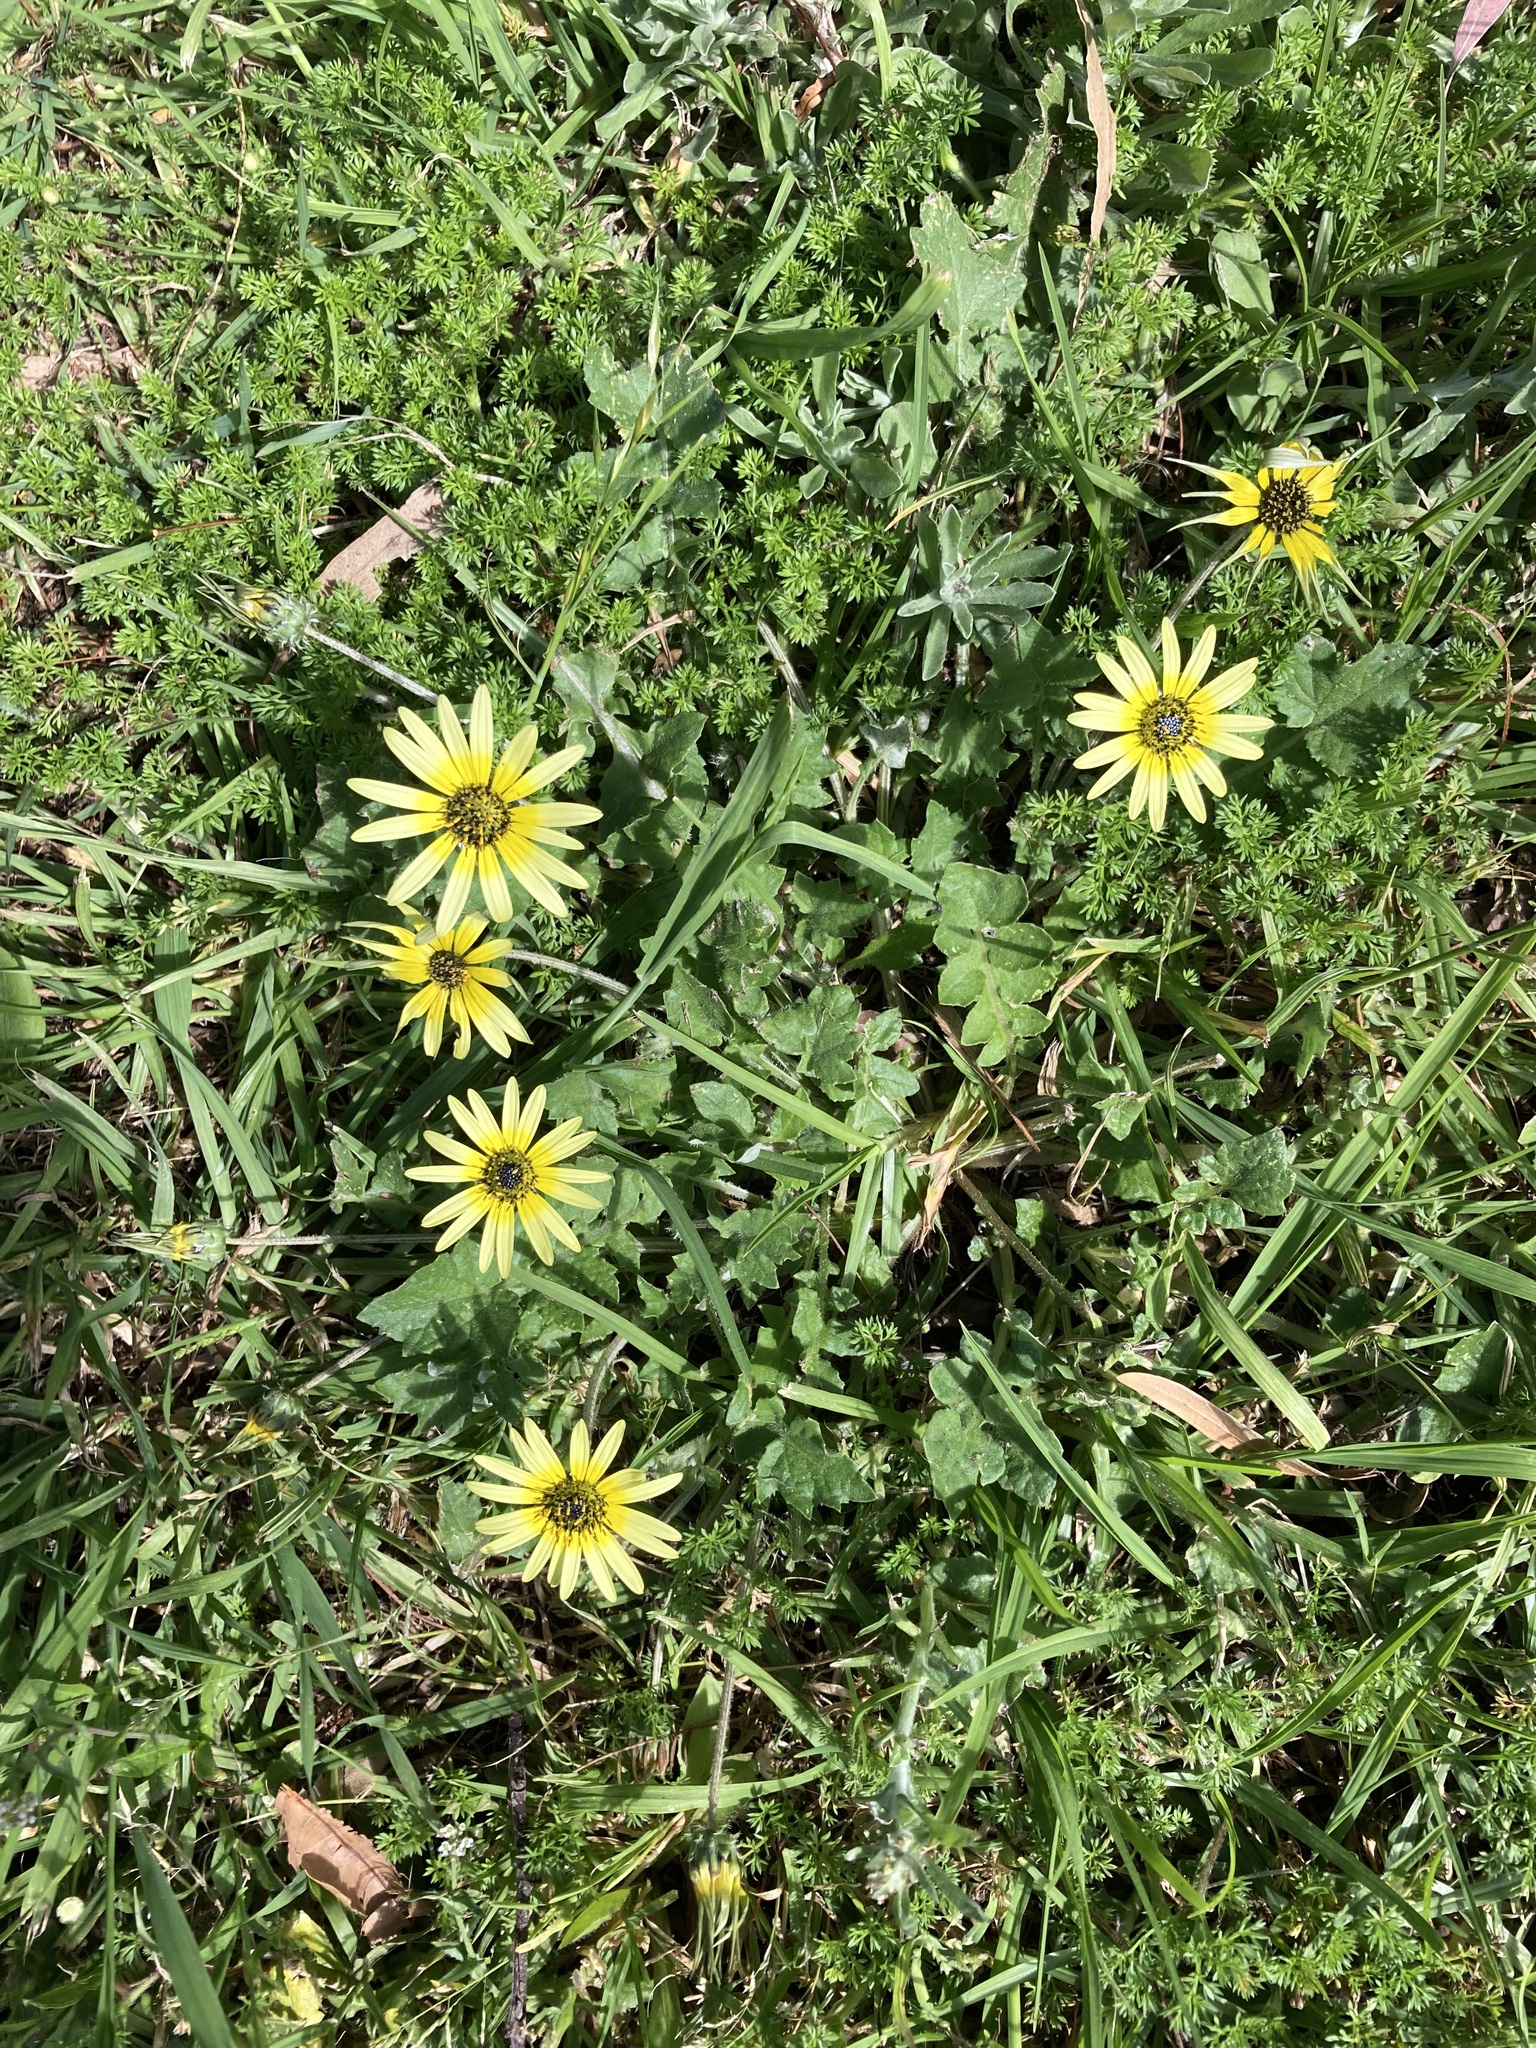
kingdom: Plantae
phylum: Tracheophyta
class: Magnoliopsida
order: Asterales
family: Asteraceae
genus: Arctotheca
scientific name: Arctotheca calendula
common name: Capeweed
